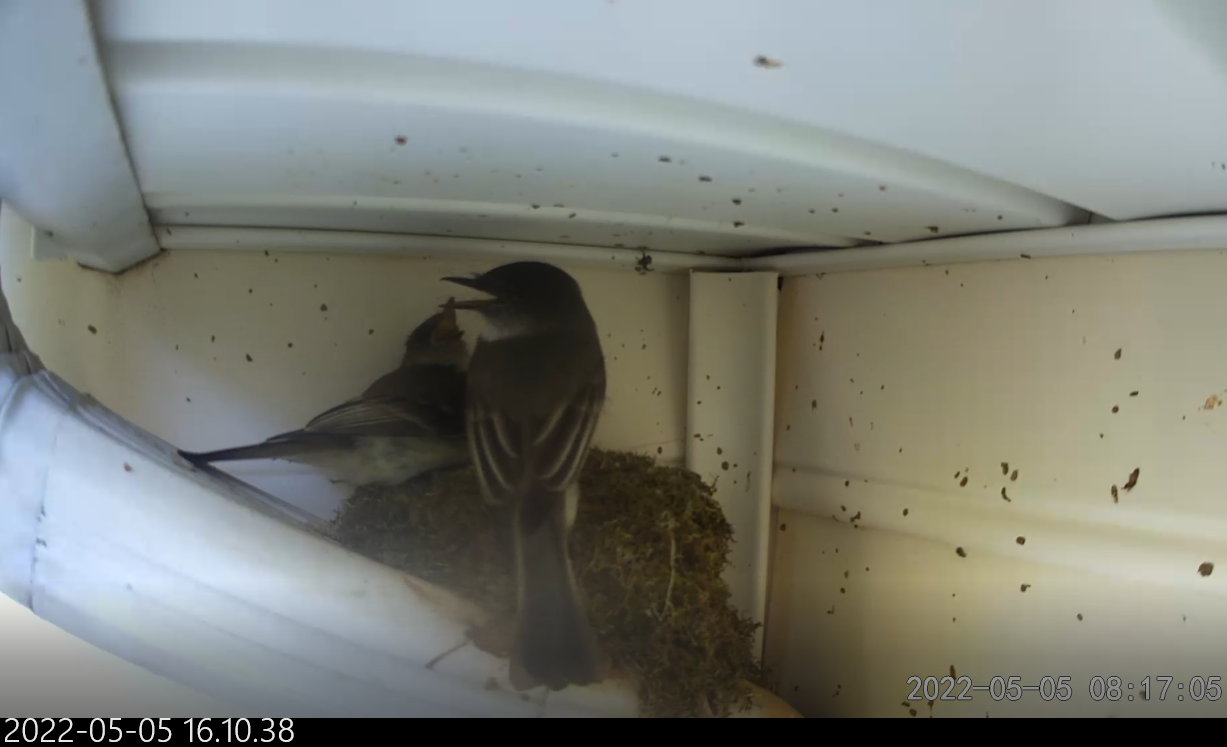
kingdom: Animalia
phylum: Chordata
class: Aves
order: Passeriformes
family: Tyrannidae
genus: Sayornis
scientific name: Sayornis phoebe
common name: Eastern phoebe
